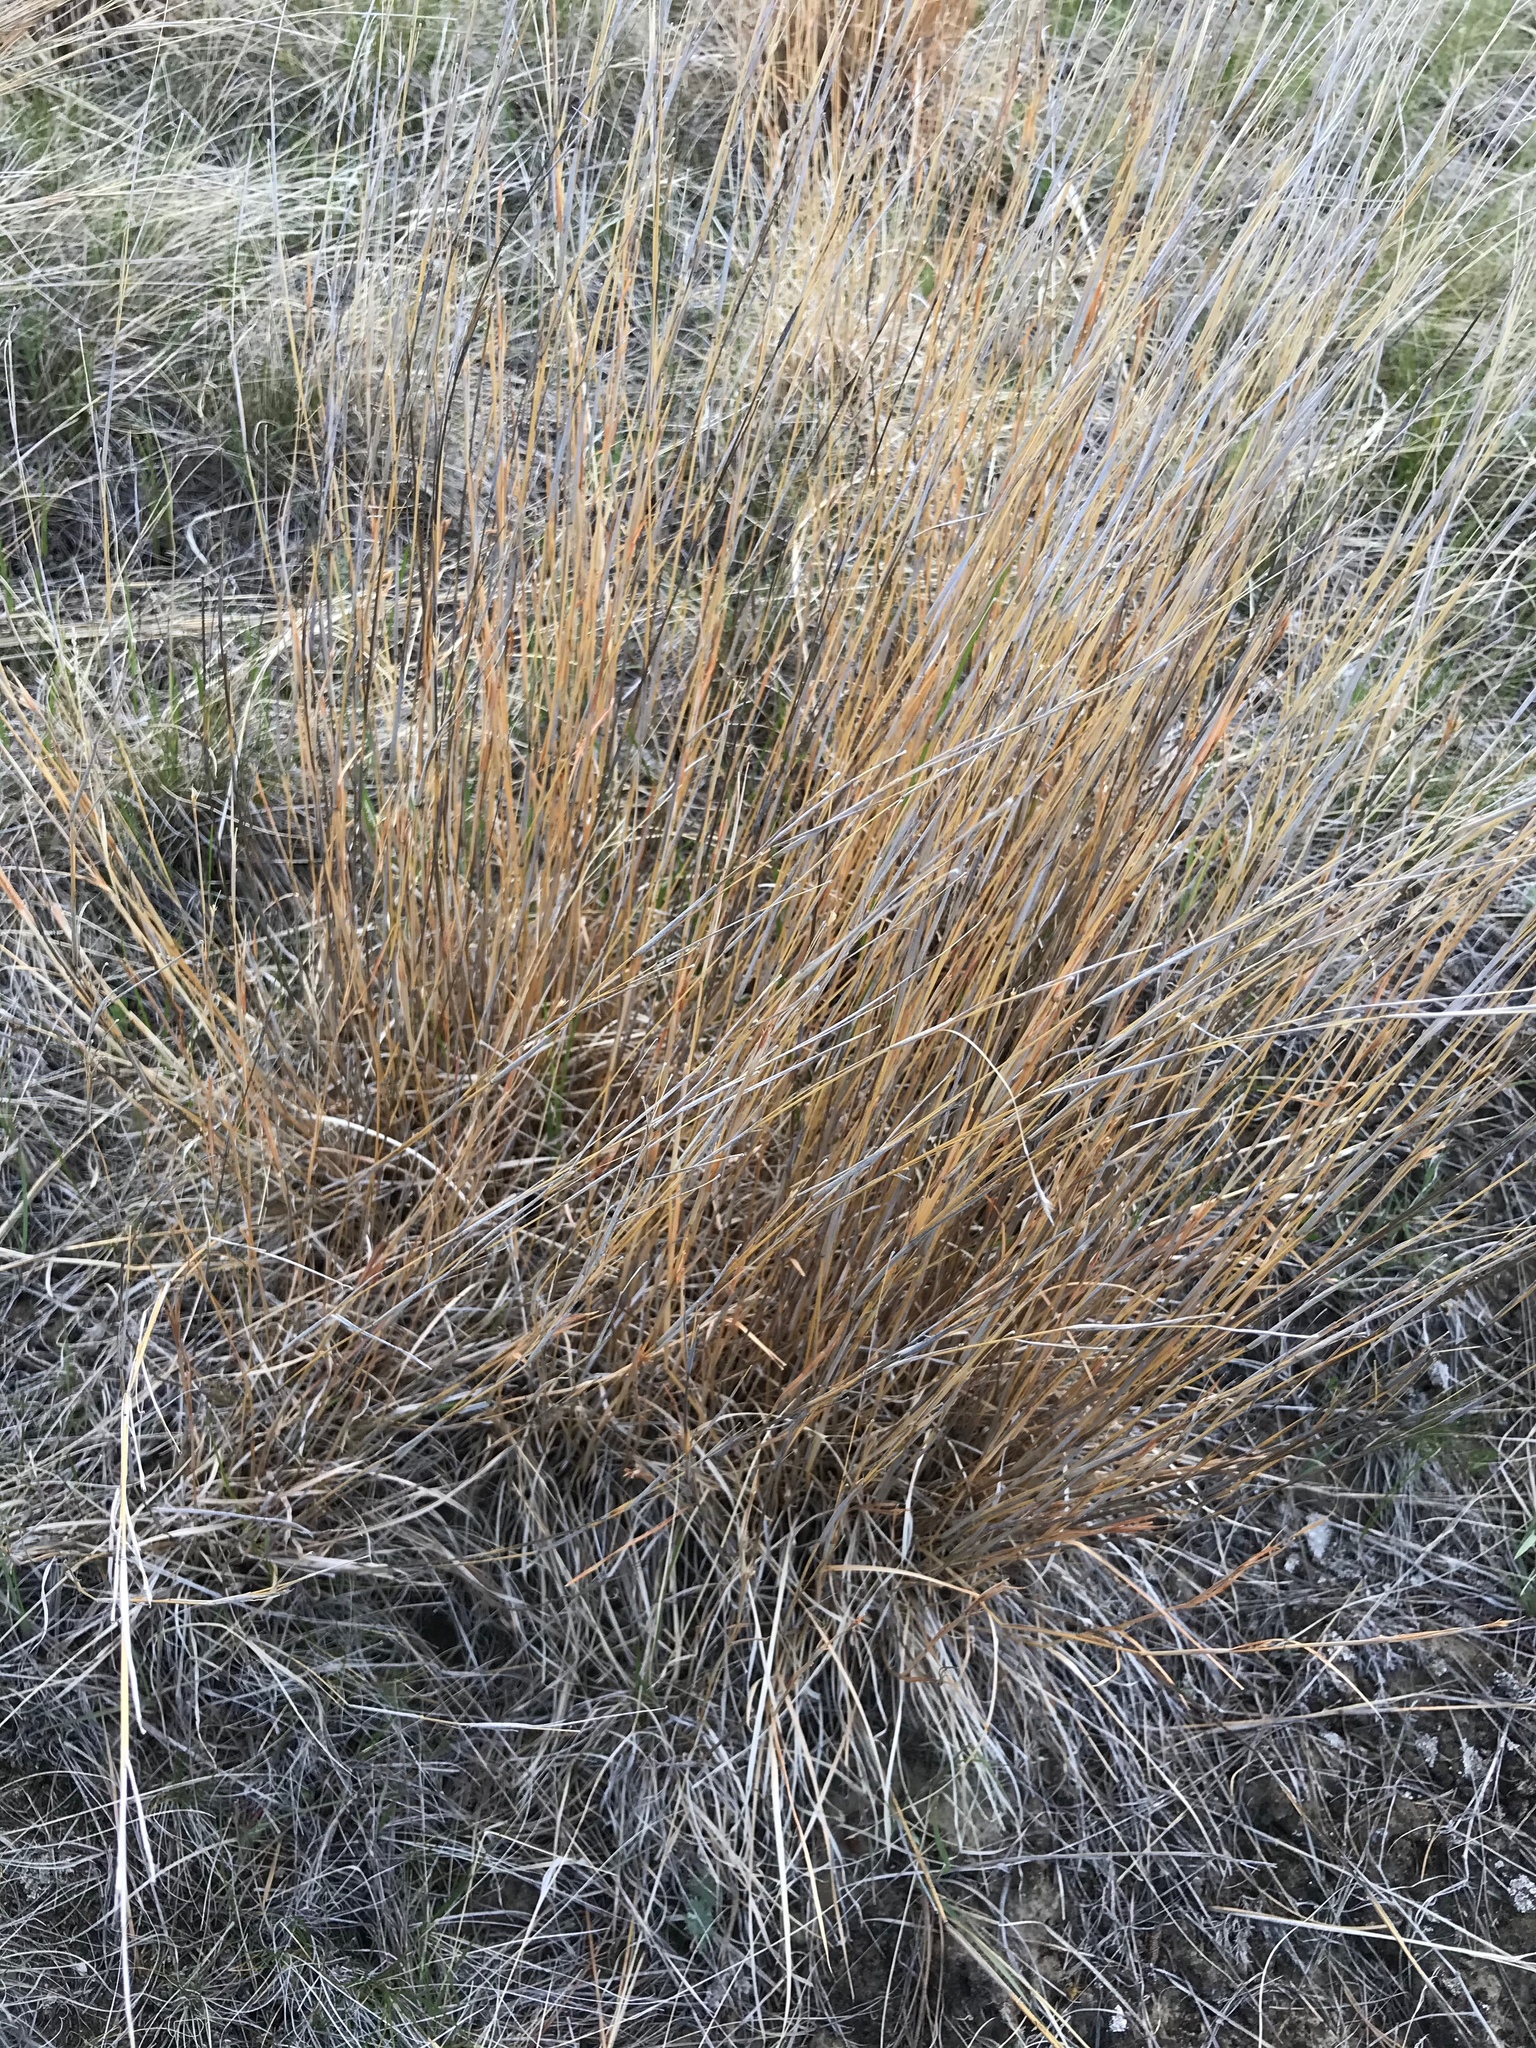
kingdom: Plantae
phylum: Tracheophyta
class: Liliopsida
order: Poales
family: Poaceae
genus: Schizachyrium
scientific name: Schizachyrium scoparium
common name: Little bluestem
